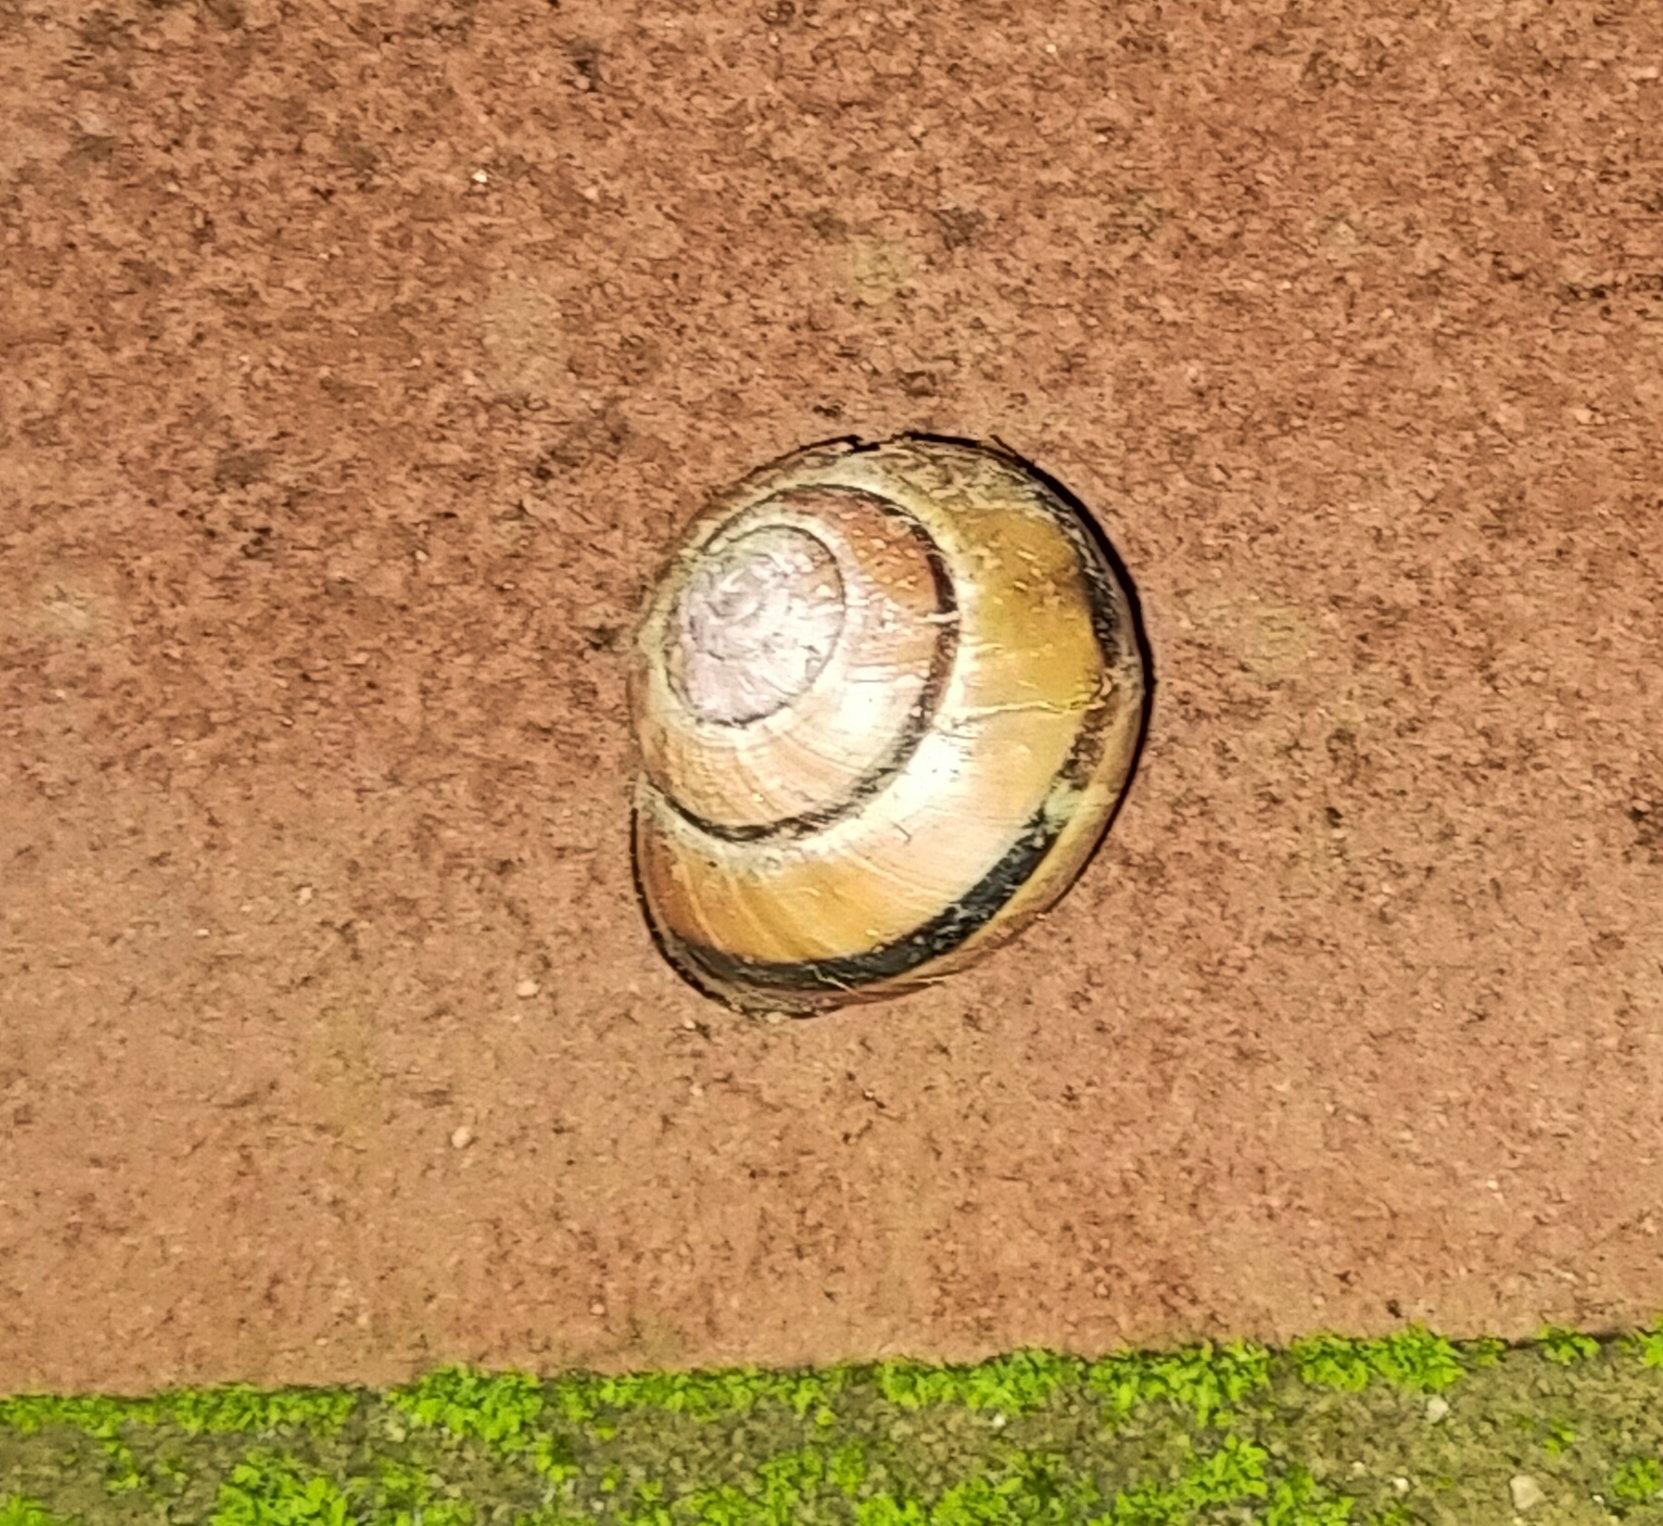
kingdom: Animalia
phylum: Mollusca
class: Gastropoda
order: Stylommatophora
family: Helicidae
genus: Cepaea
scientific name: Cepaea nemoralis
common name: Grovesnail
